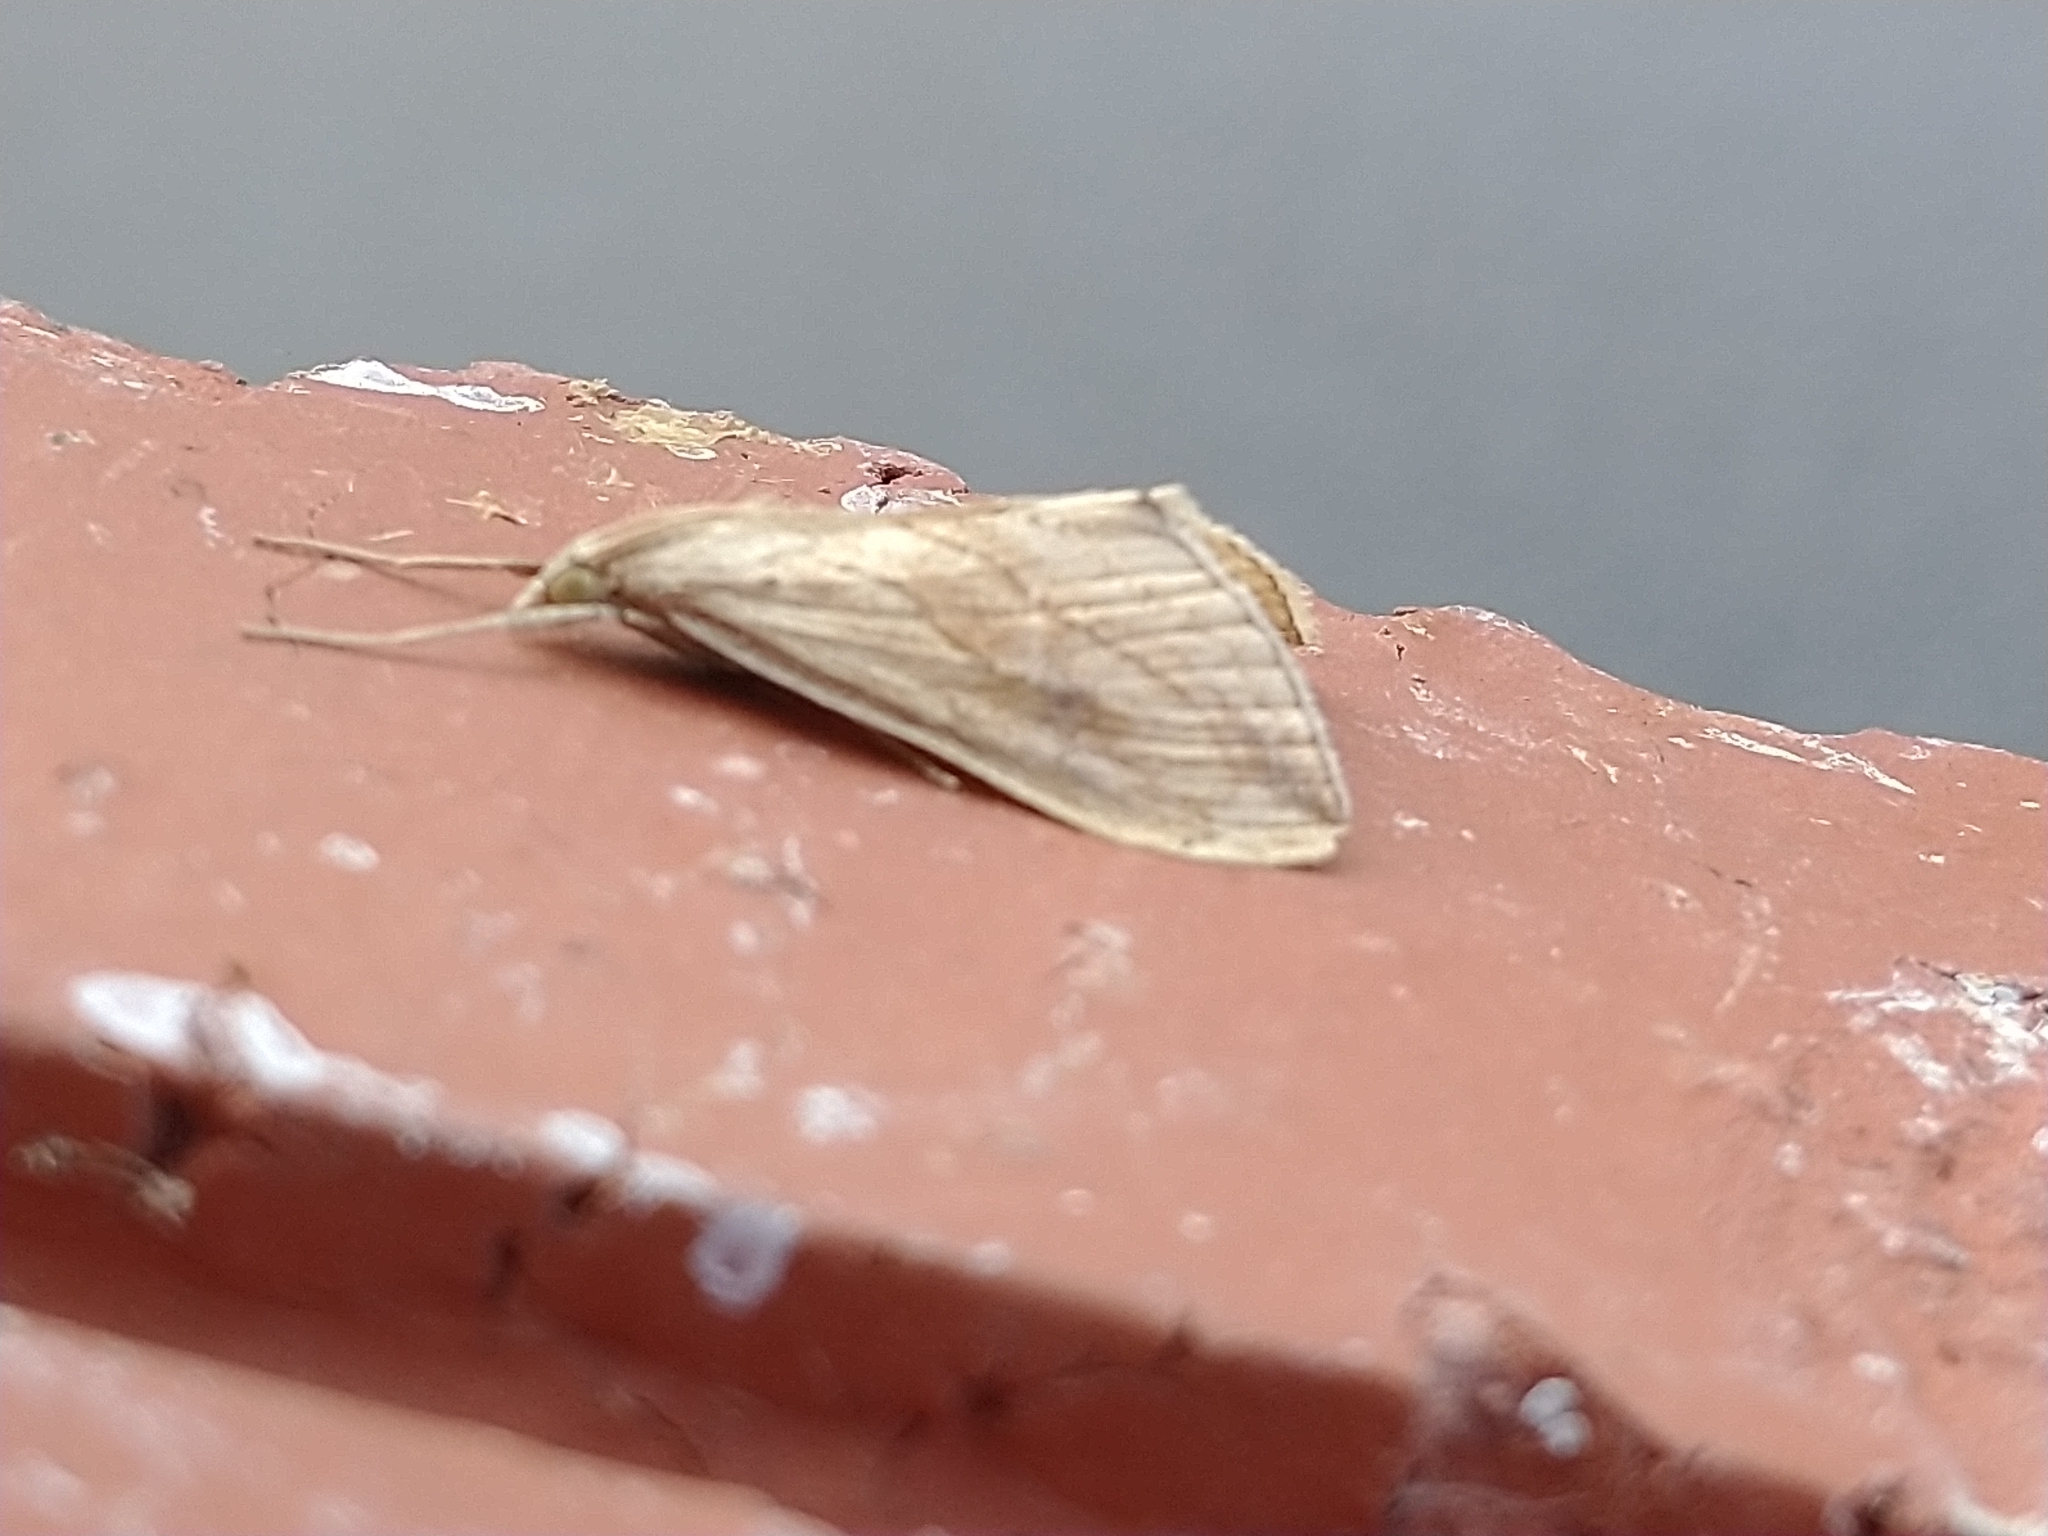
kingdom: Animalia
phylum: Arthropoda
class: Insecta
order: Lepidoptera
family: Crambidae
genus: Evergestis
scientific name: Evergestis forficalis
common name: Garden pebble
